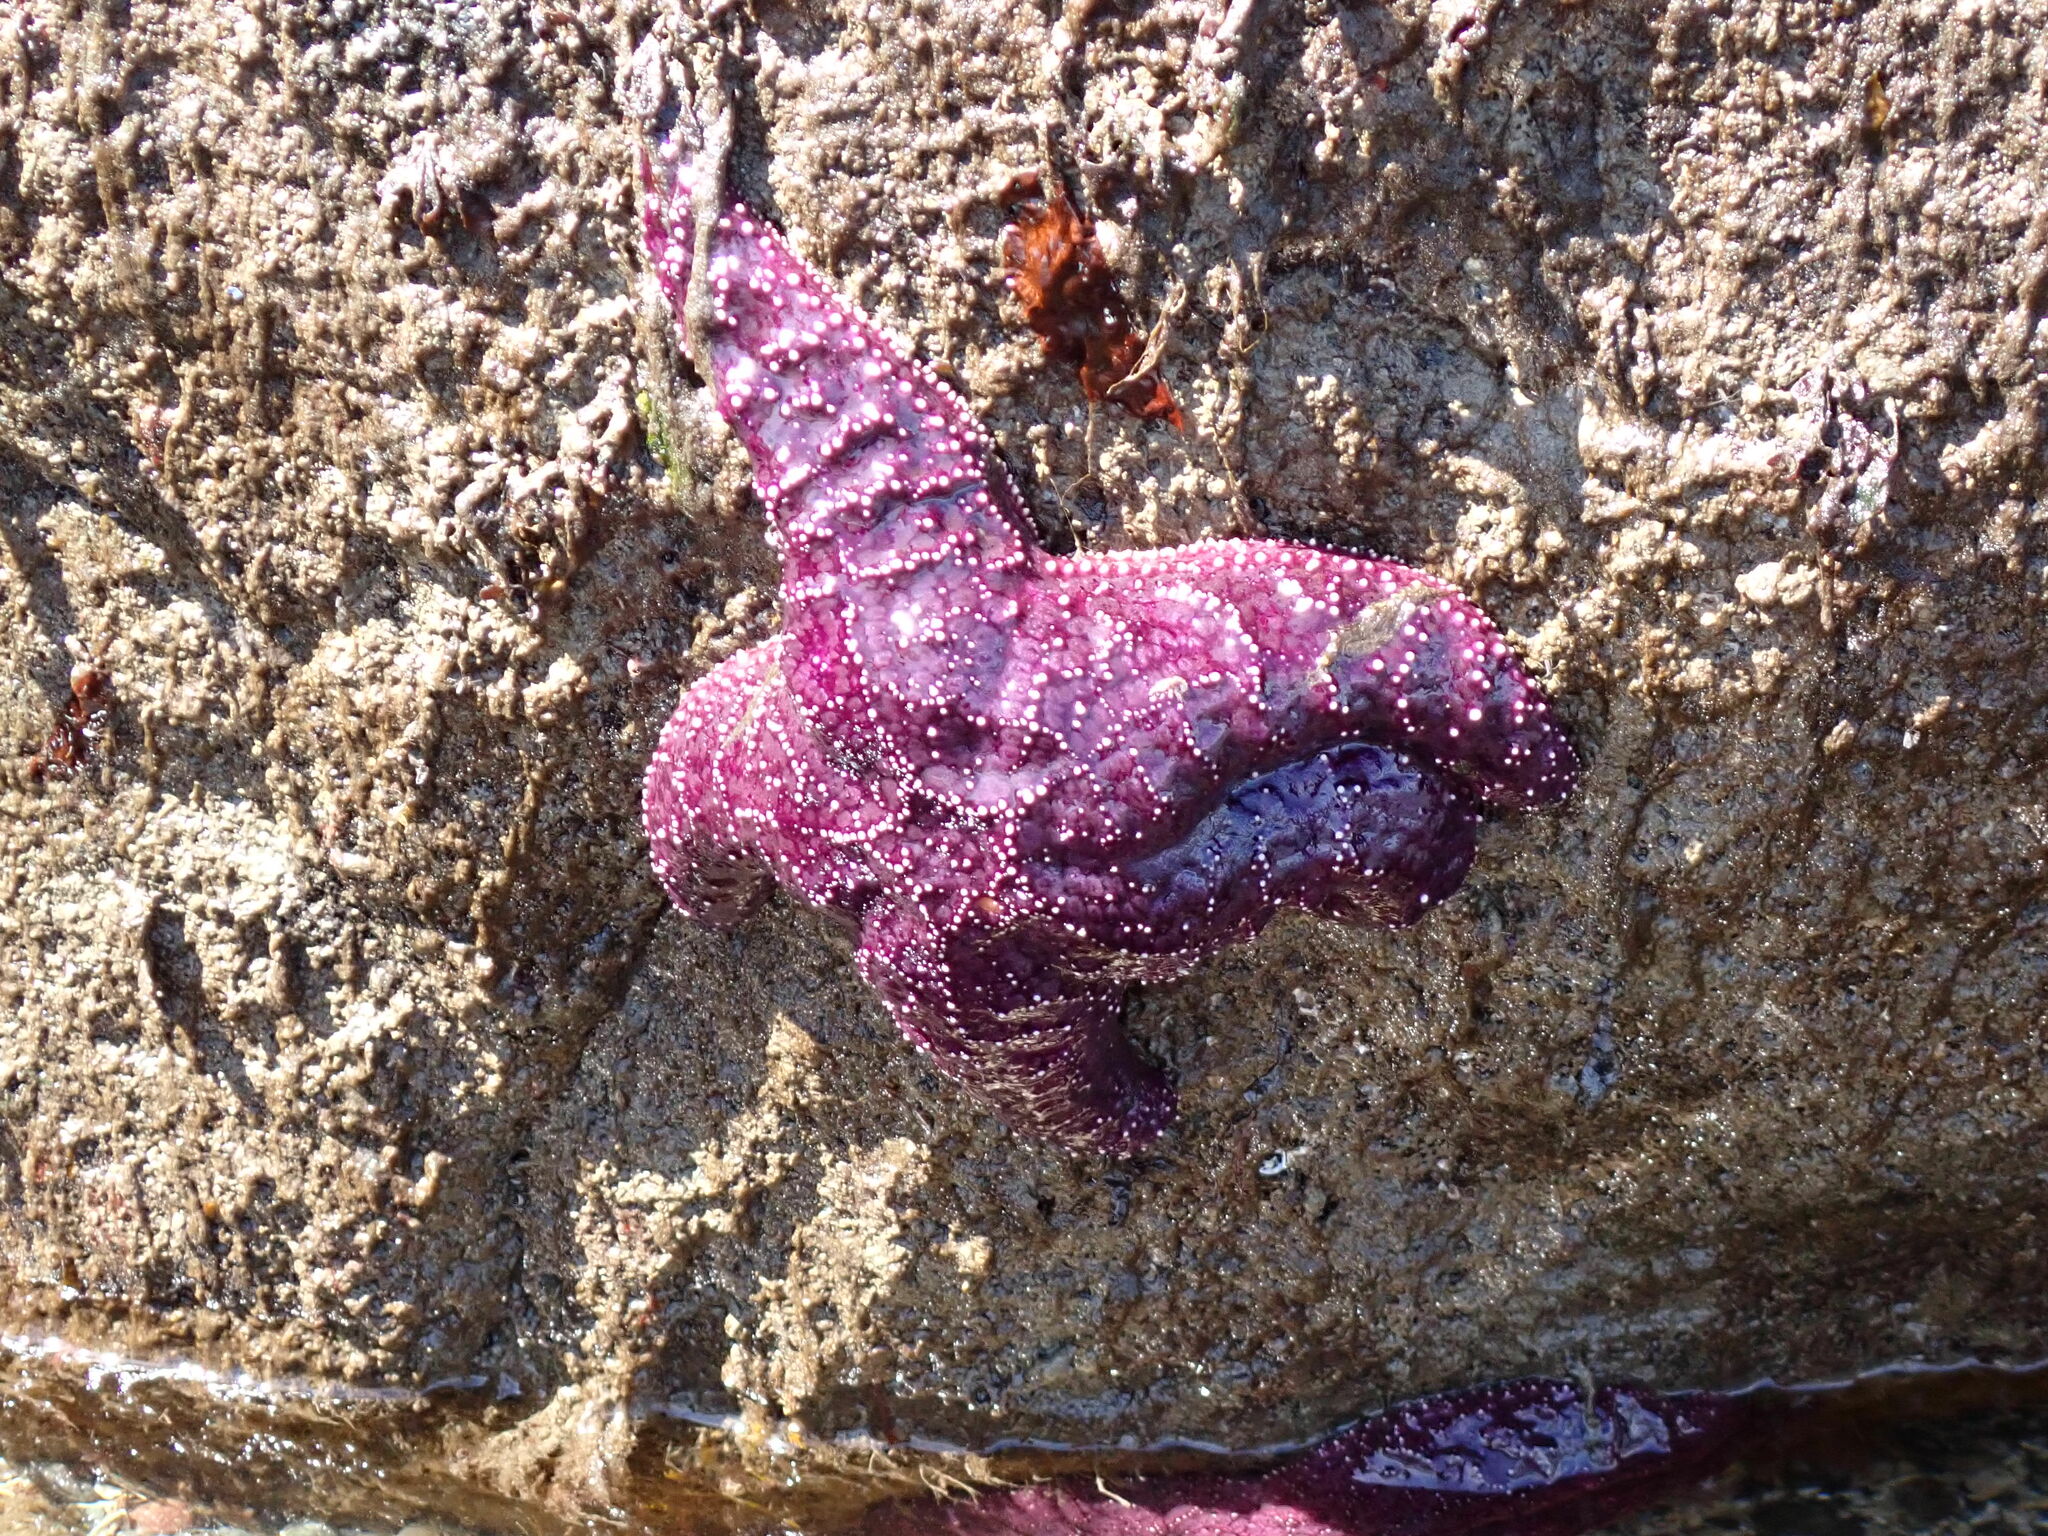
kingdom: Animalia
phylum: Echinodermata
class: Asteroidea
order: Forcipulatida
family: Asteriidae
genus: Pisaster
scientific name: Pisaster ochraceus
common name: Ochre stars
